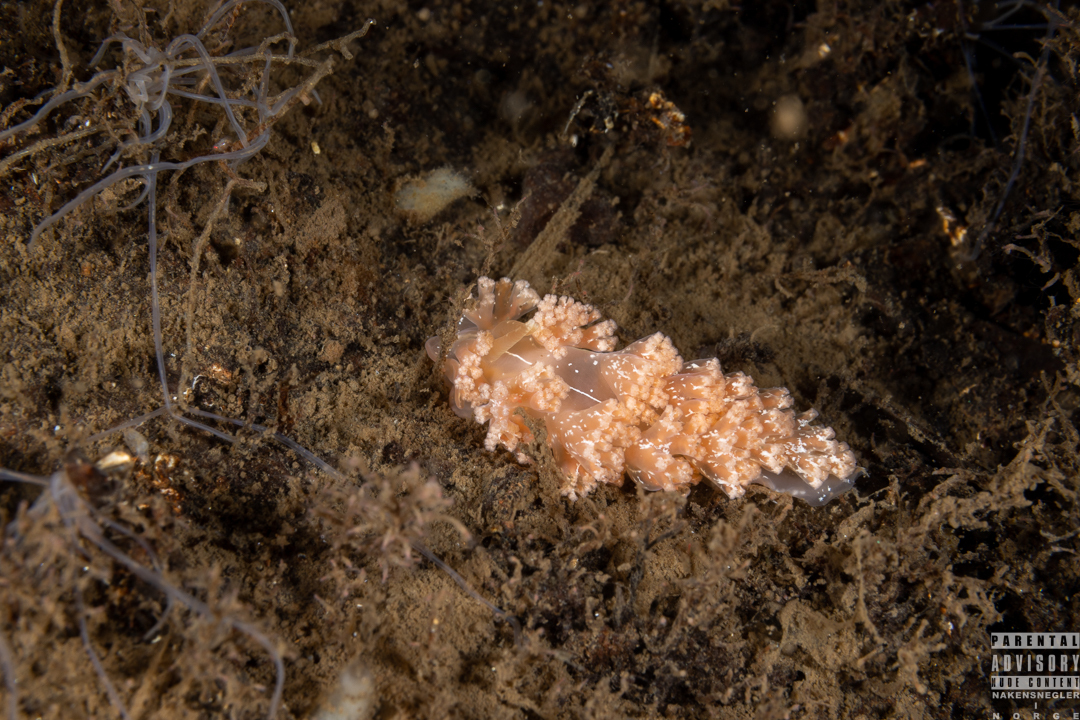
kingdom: Animalia
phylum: Mollusca
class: Gastropoda
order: Nudibranchia
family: Heroidae
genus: Hero
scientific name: Hero formosa
